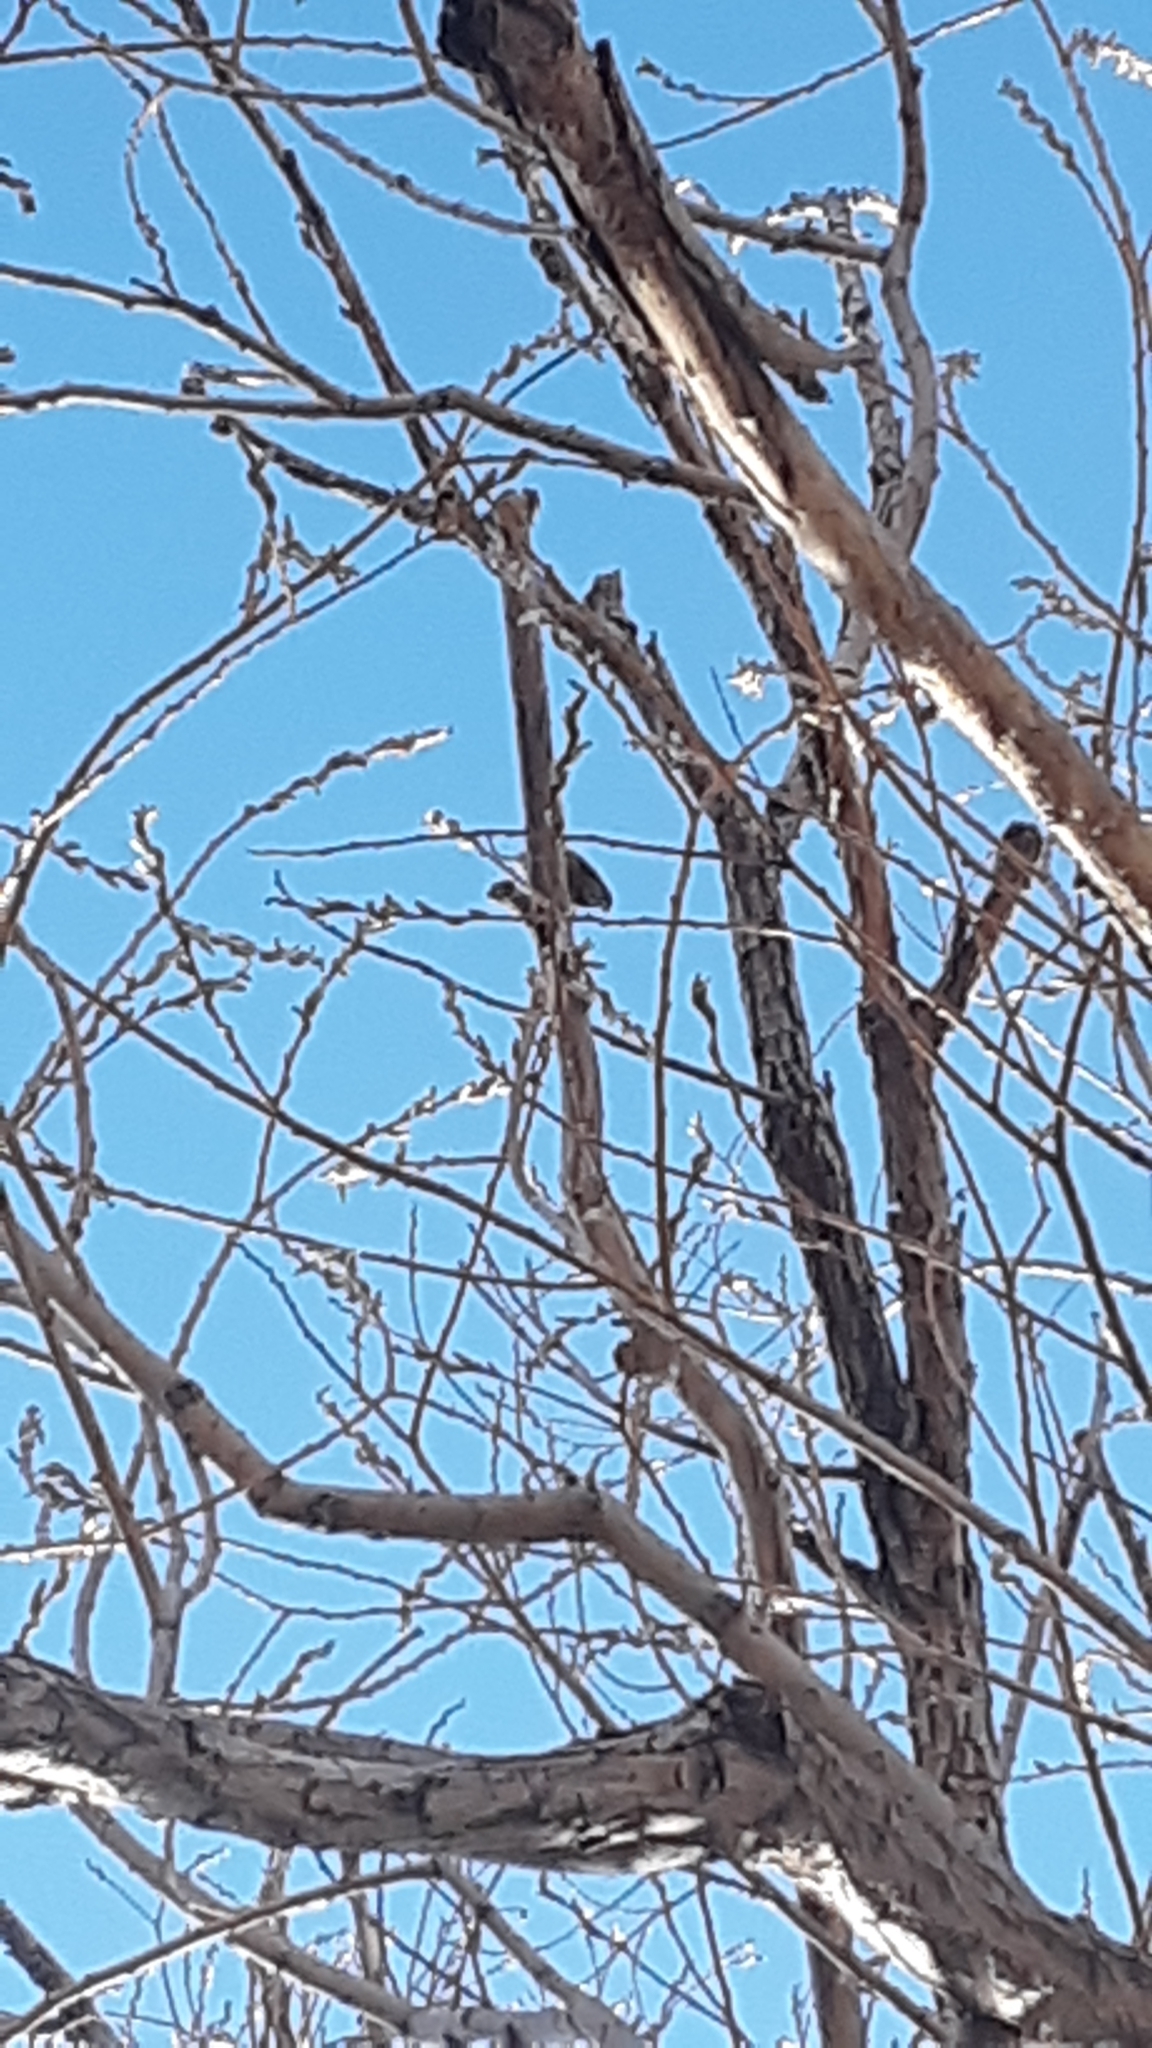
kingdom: Animalia
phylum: Chordata
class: Aves
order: Passeriformes
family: Sittidae
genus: Sitta
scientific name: Sitta canadensis
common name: Red-breasted nuthatch
